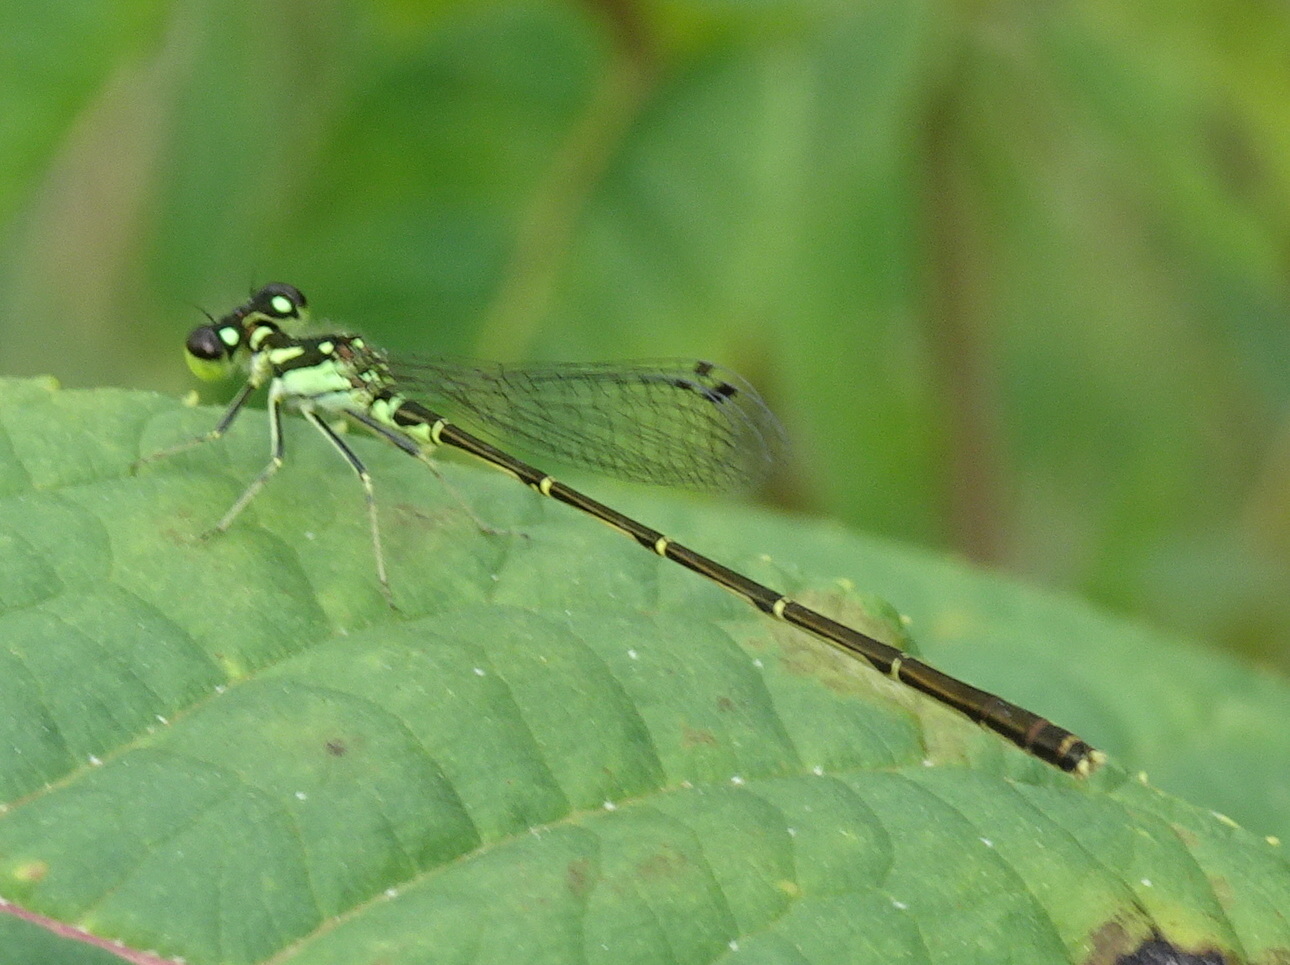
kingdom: Animalia
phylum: Arthropoda
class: Insecta
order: Odonata
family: Coenagrionidae
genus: Ischnura
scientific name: Ischnura posita
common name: Fragile forktail
